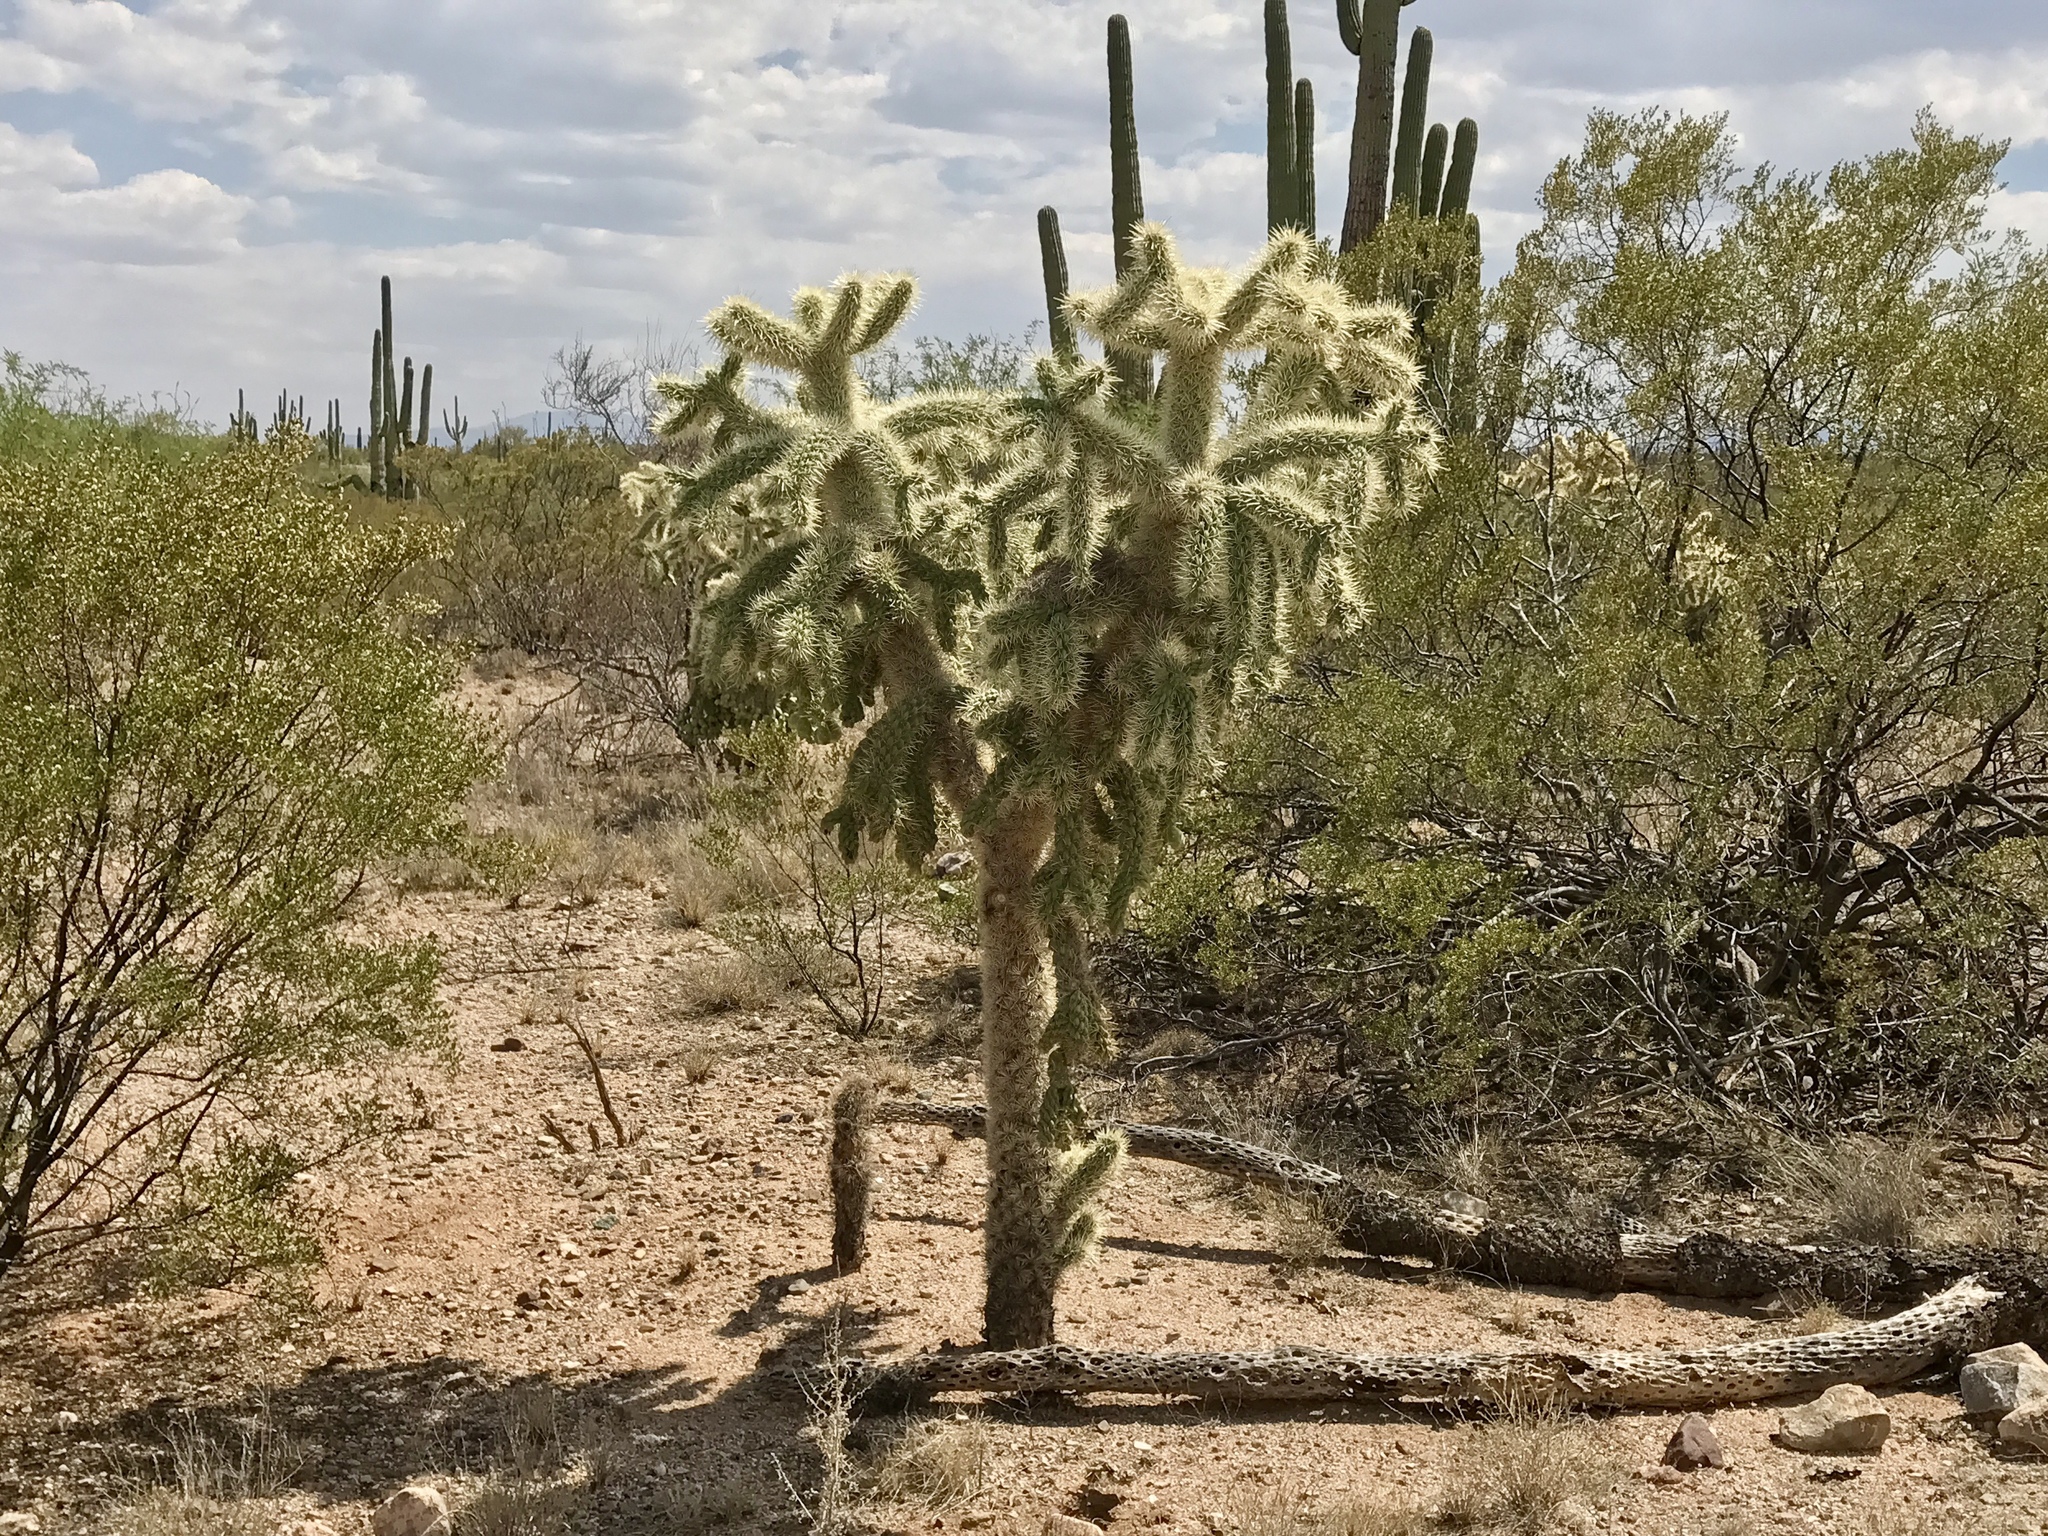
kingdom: Plantae
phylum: Tracheophyta
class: Magnoliopsida
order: Caryophyllales
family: Cactaceae
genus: Cylindropuntia
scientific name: Cylindropuntia fulgida
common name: Jumping cholla
